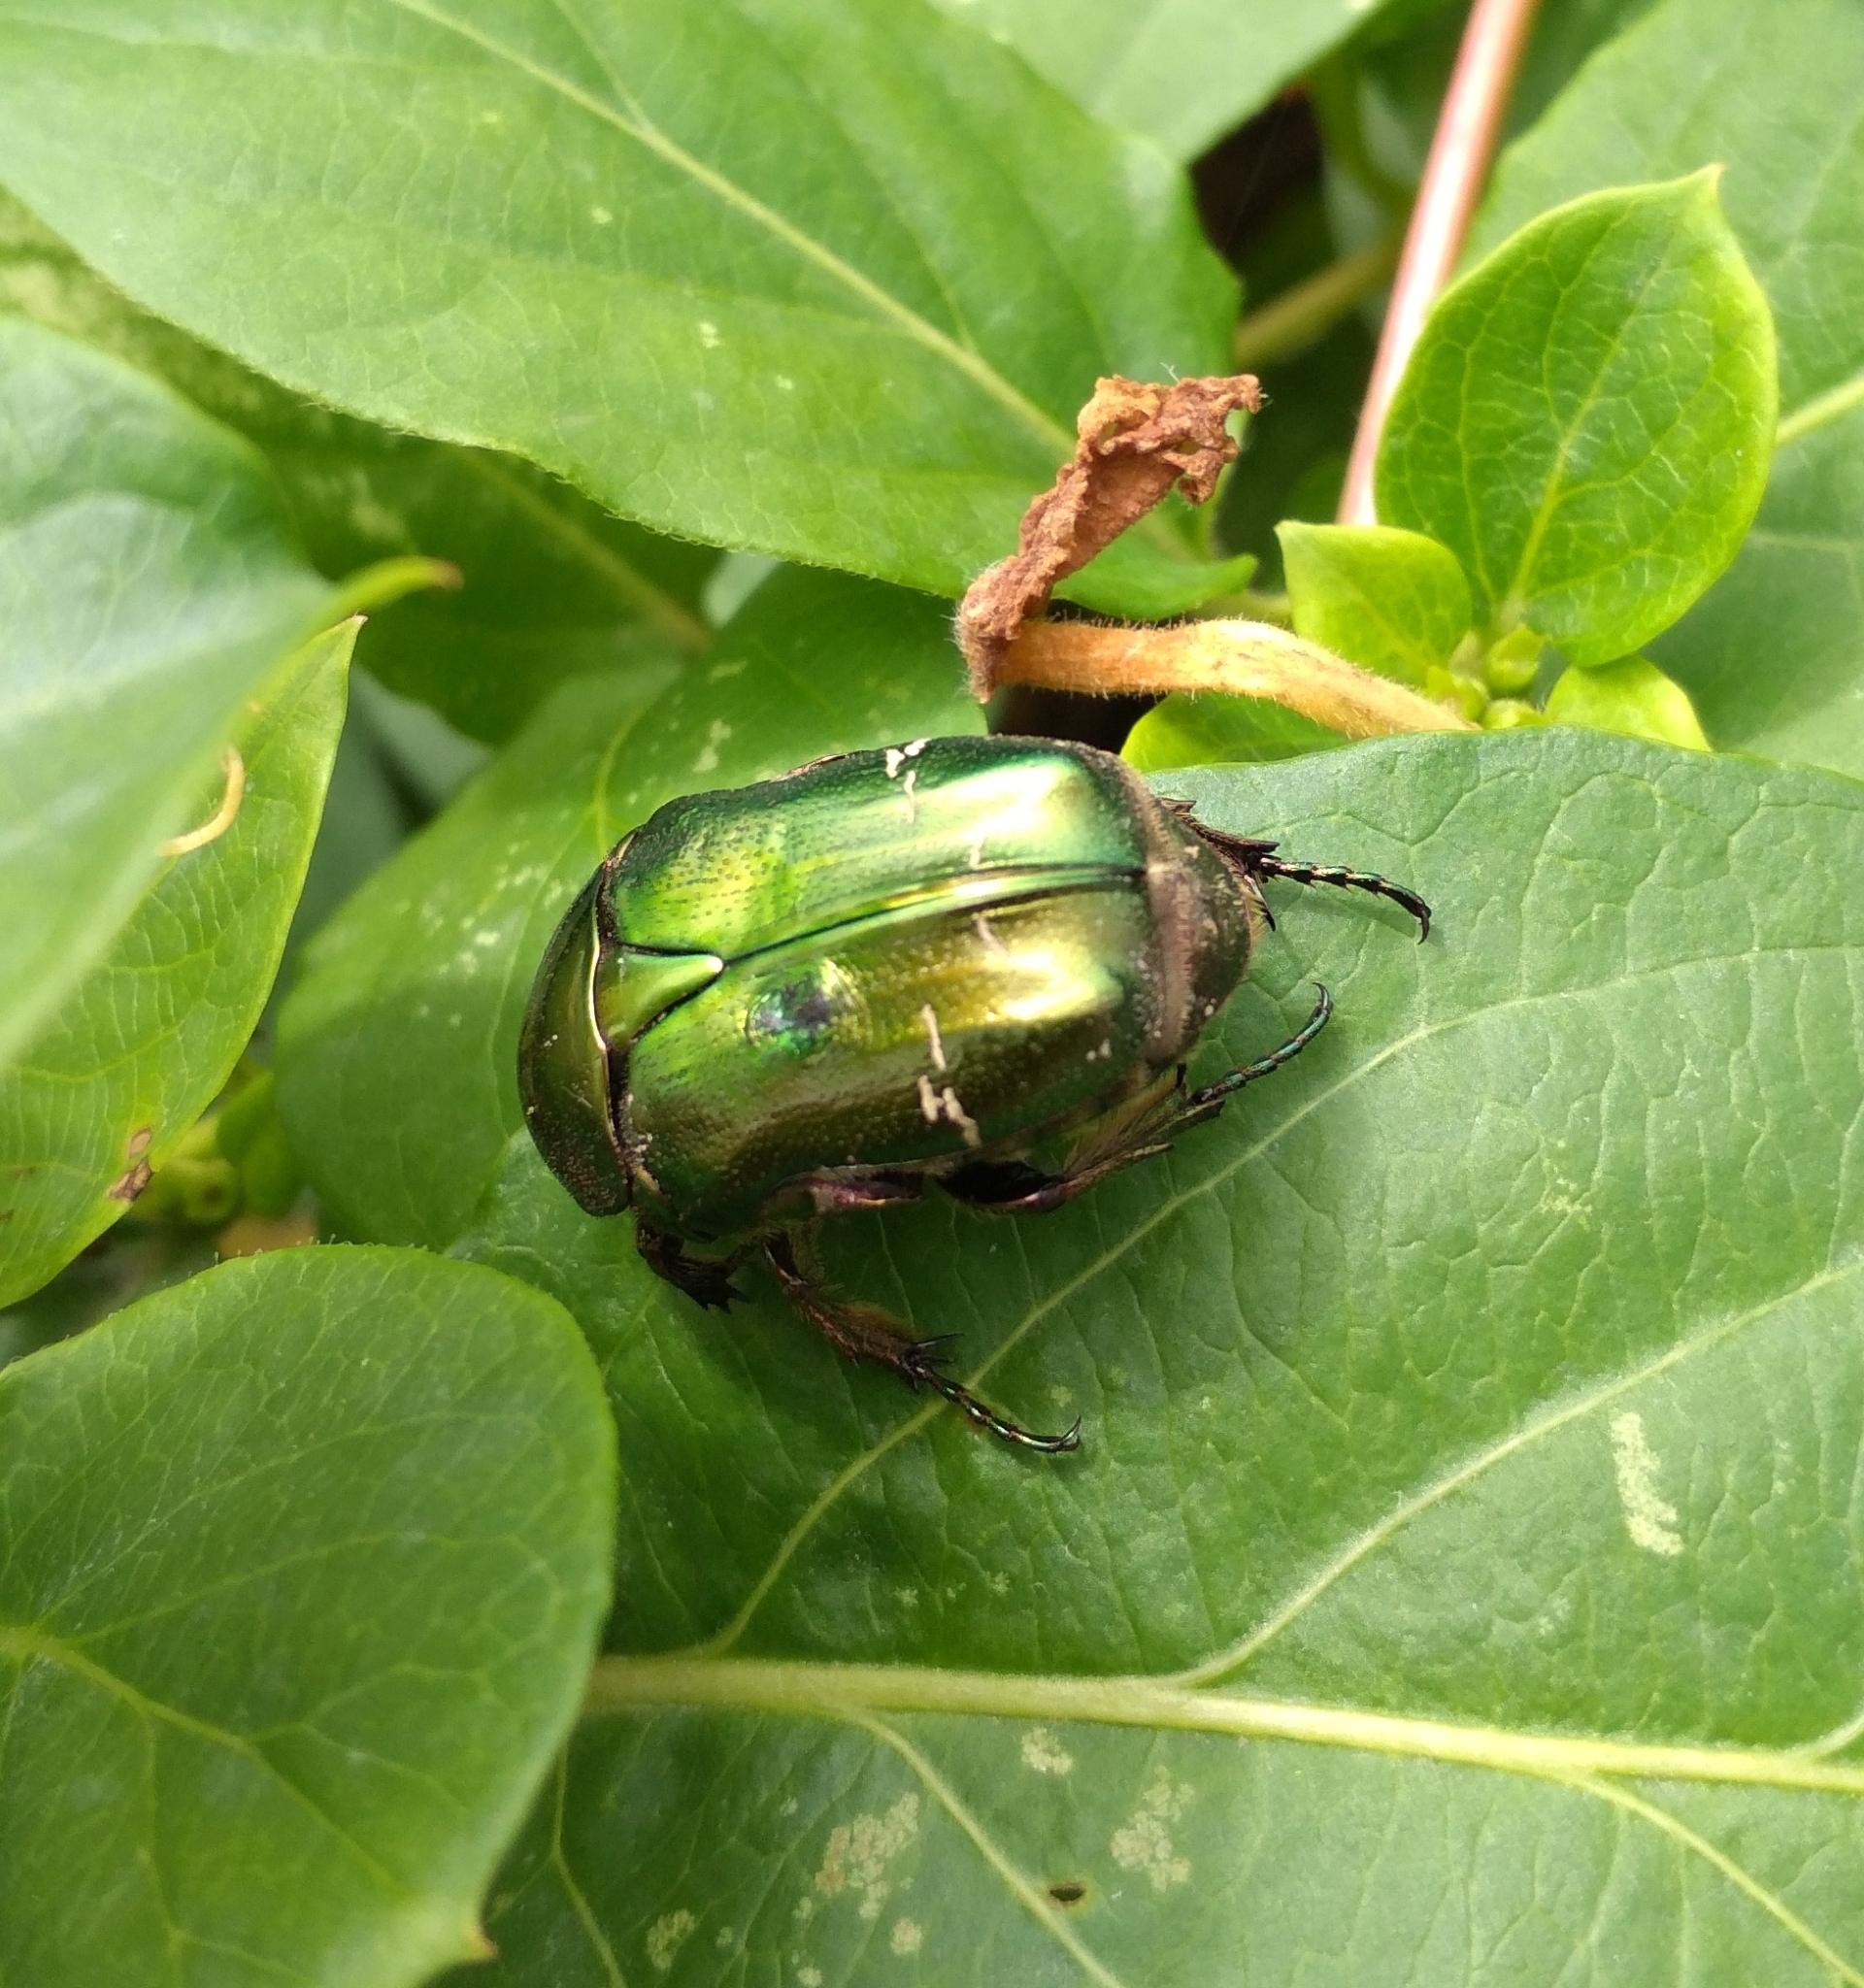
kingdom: Animalia
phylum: Arthropoda
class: Insecta
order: Coleoptera
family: Scarabaeidae
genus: Cetonia
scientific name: Cetonia aurata
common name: Rose chafer
